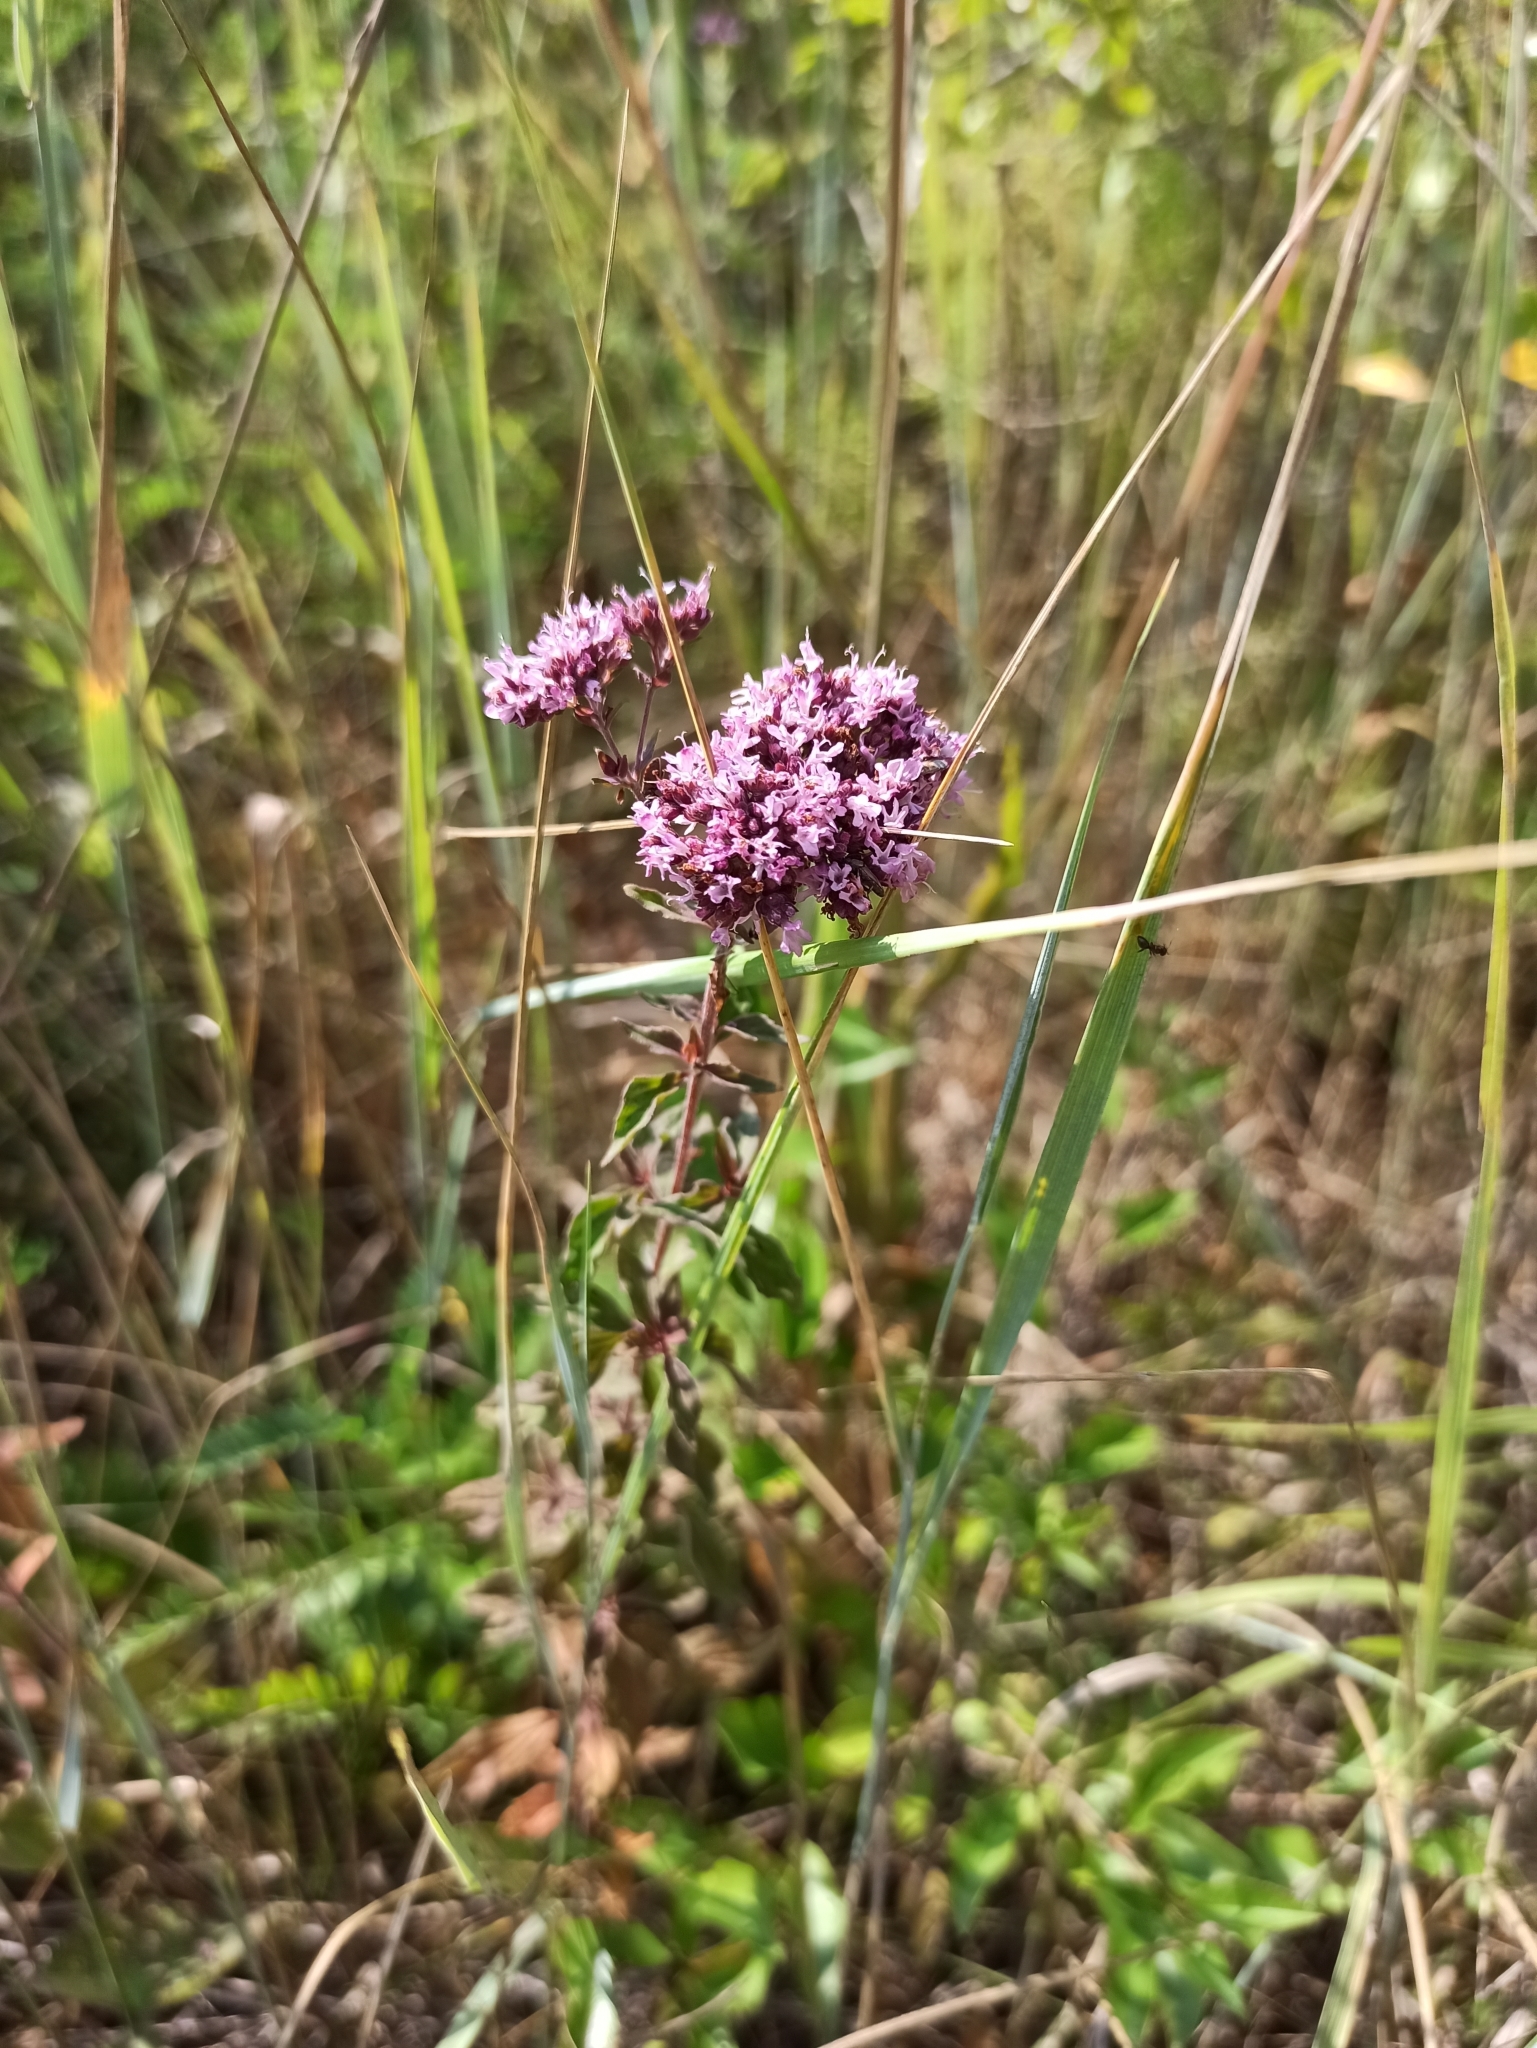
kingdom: Plantae
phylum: Tracheophyta
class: Magnoliopsida
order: Lamiales
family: Lamiaceae
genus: Origanum
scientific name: Origanum vulgare
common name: Wild marjoram
